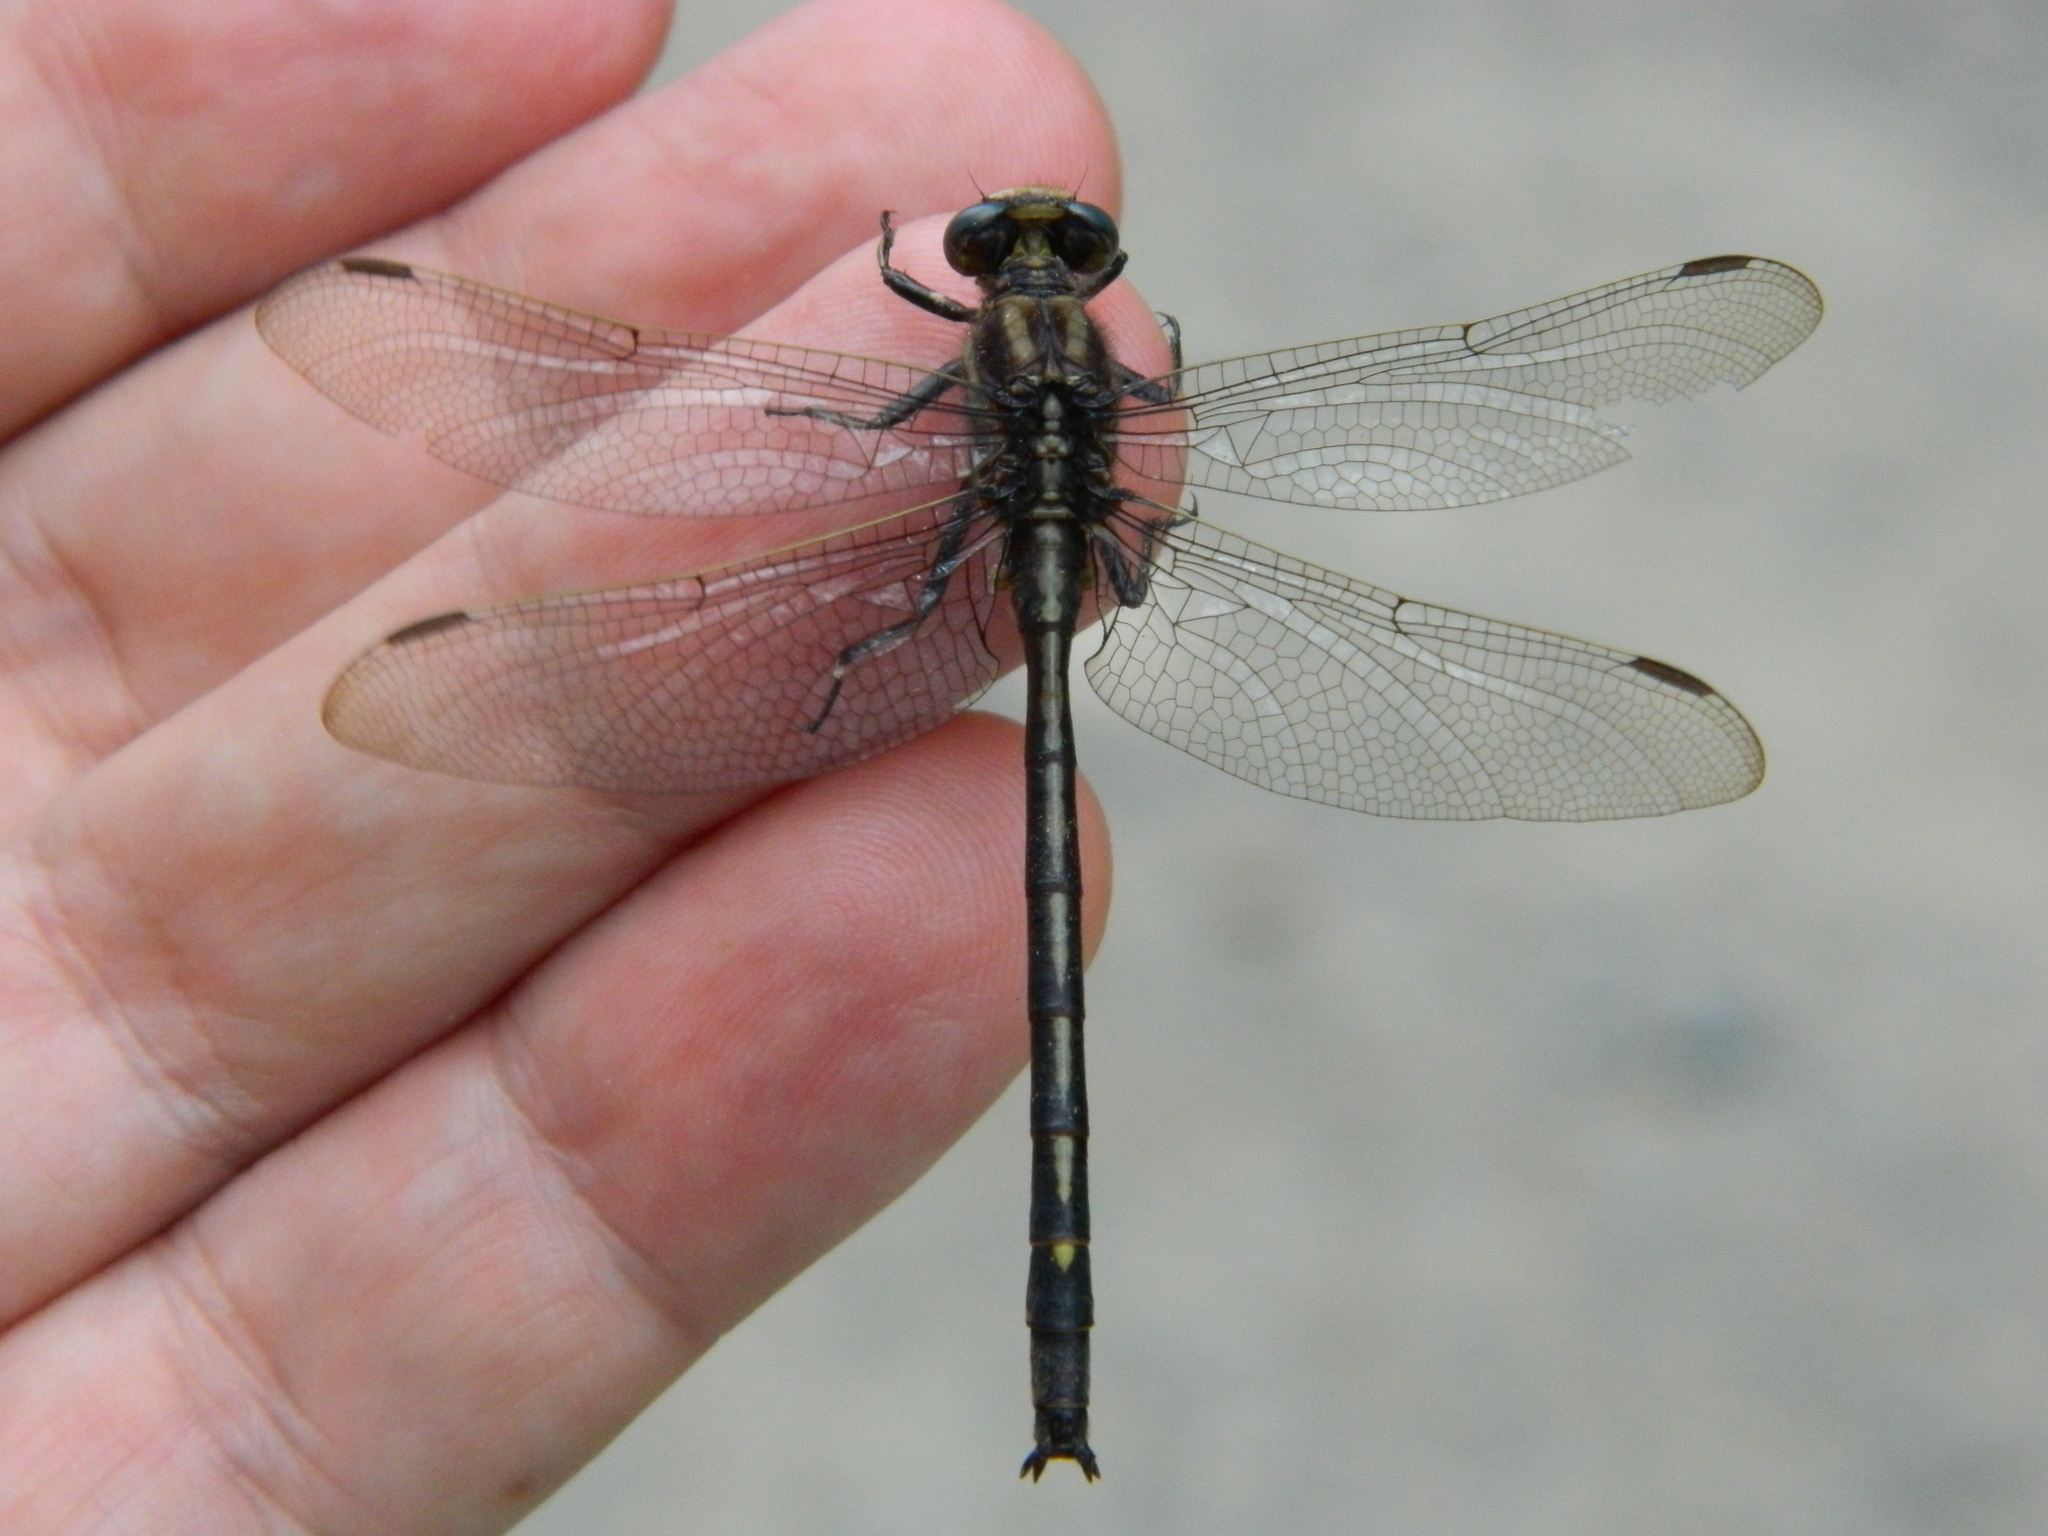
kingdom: Animalia
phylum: Arthropoda
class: Insecta
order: Odonata
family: Gomphidae
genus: Phanogomphus
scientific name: Phanogomphus spicatus
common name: Dusky clubtail
